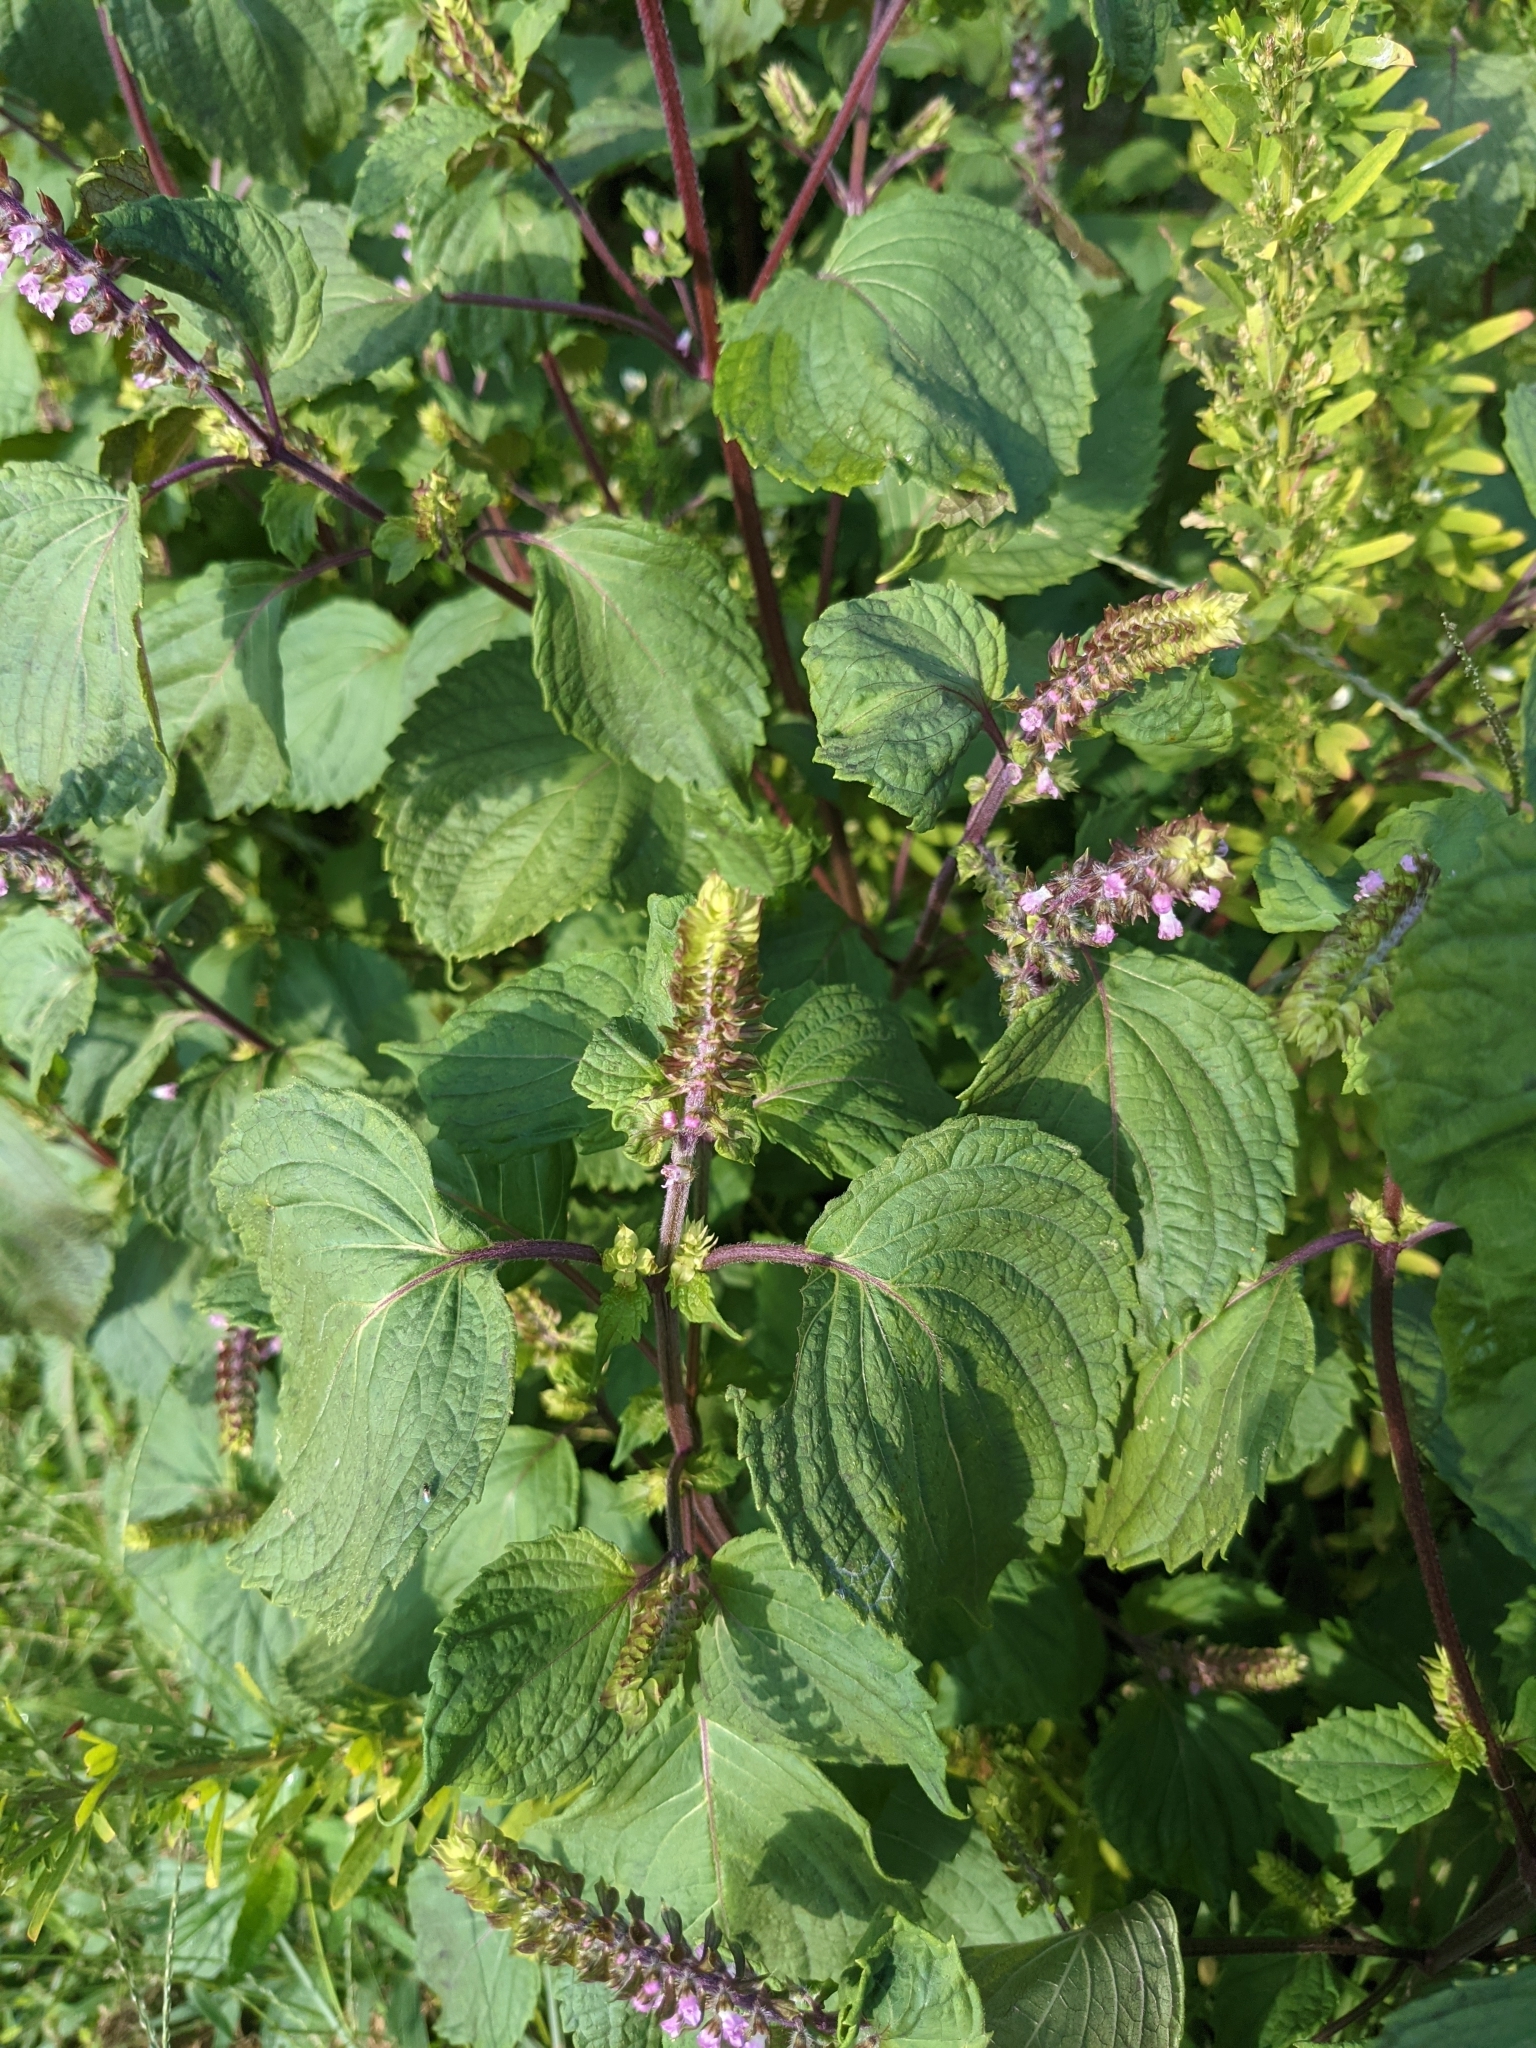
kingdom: Plantae
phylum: Tracheophyta
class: Magnoliopsida
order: Lamiales
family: Lamiaceae
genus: Perilla
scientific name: Perilla frutescens
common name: Perilla
